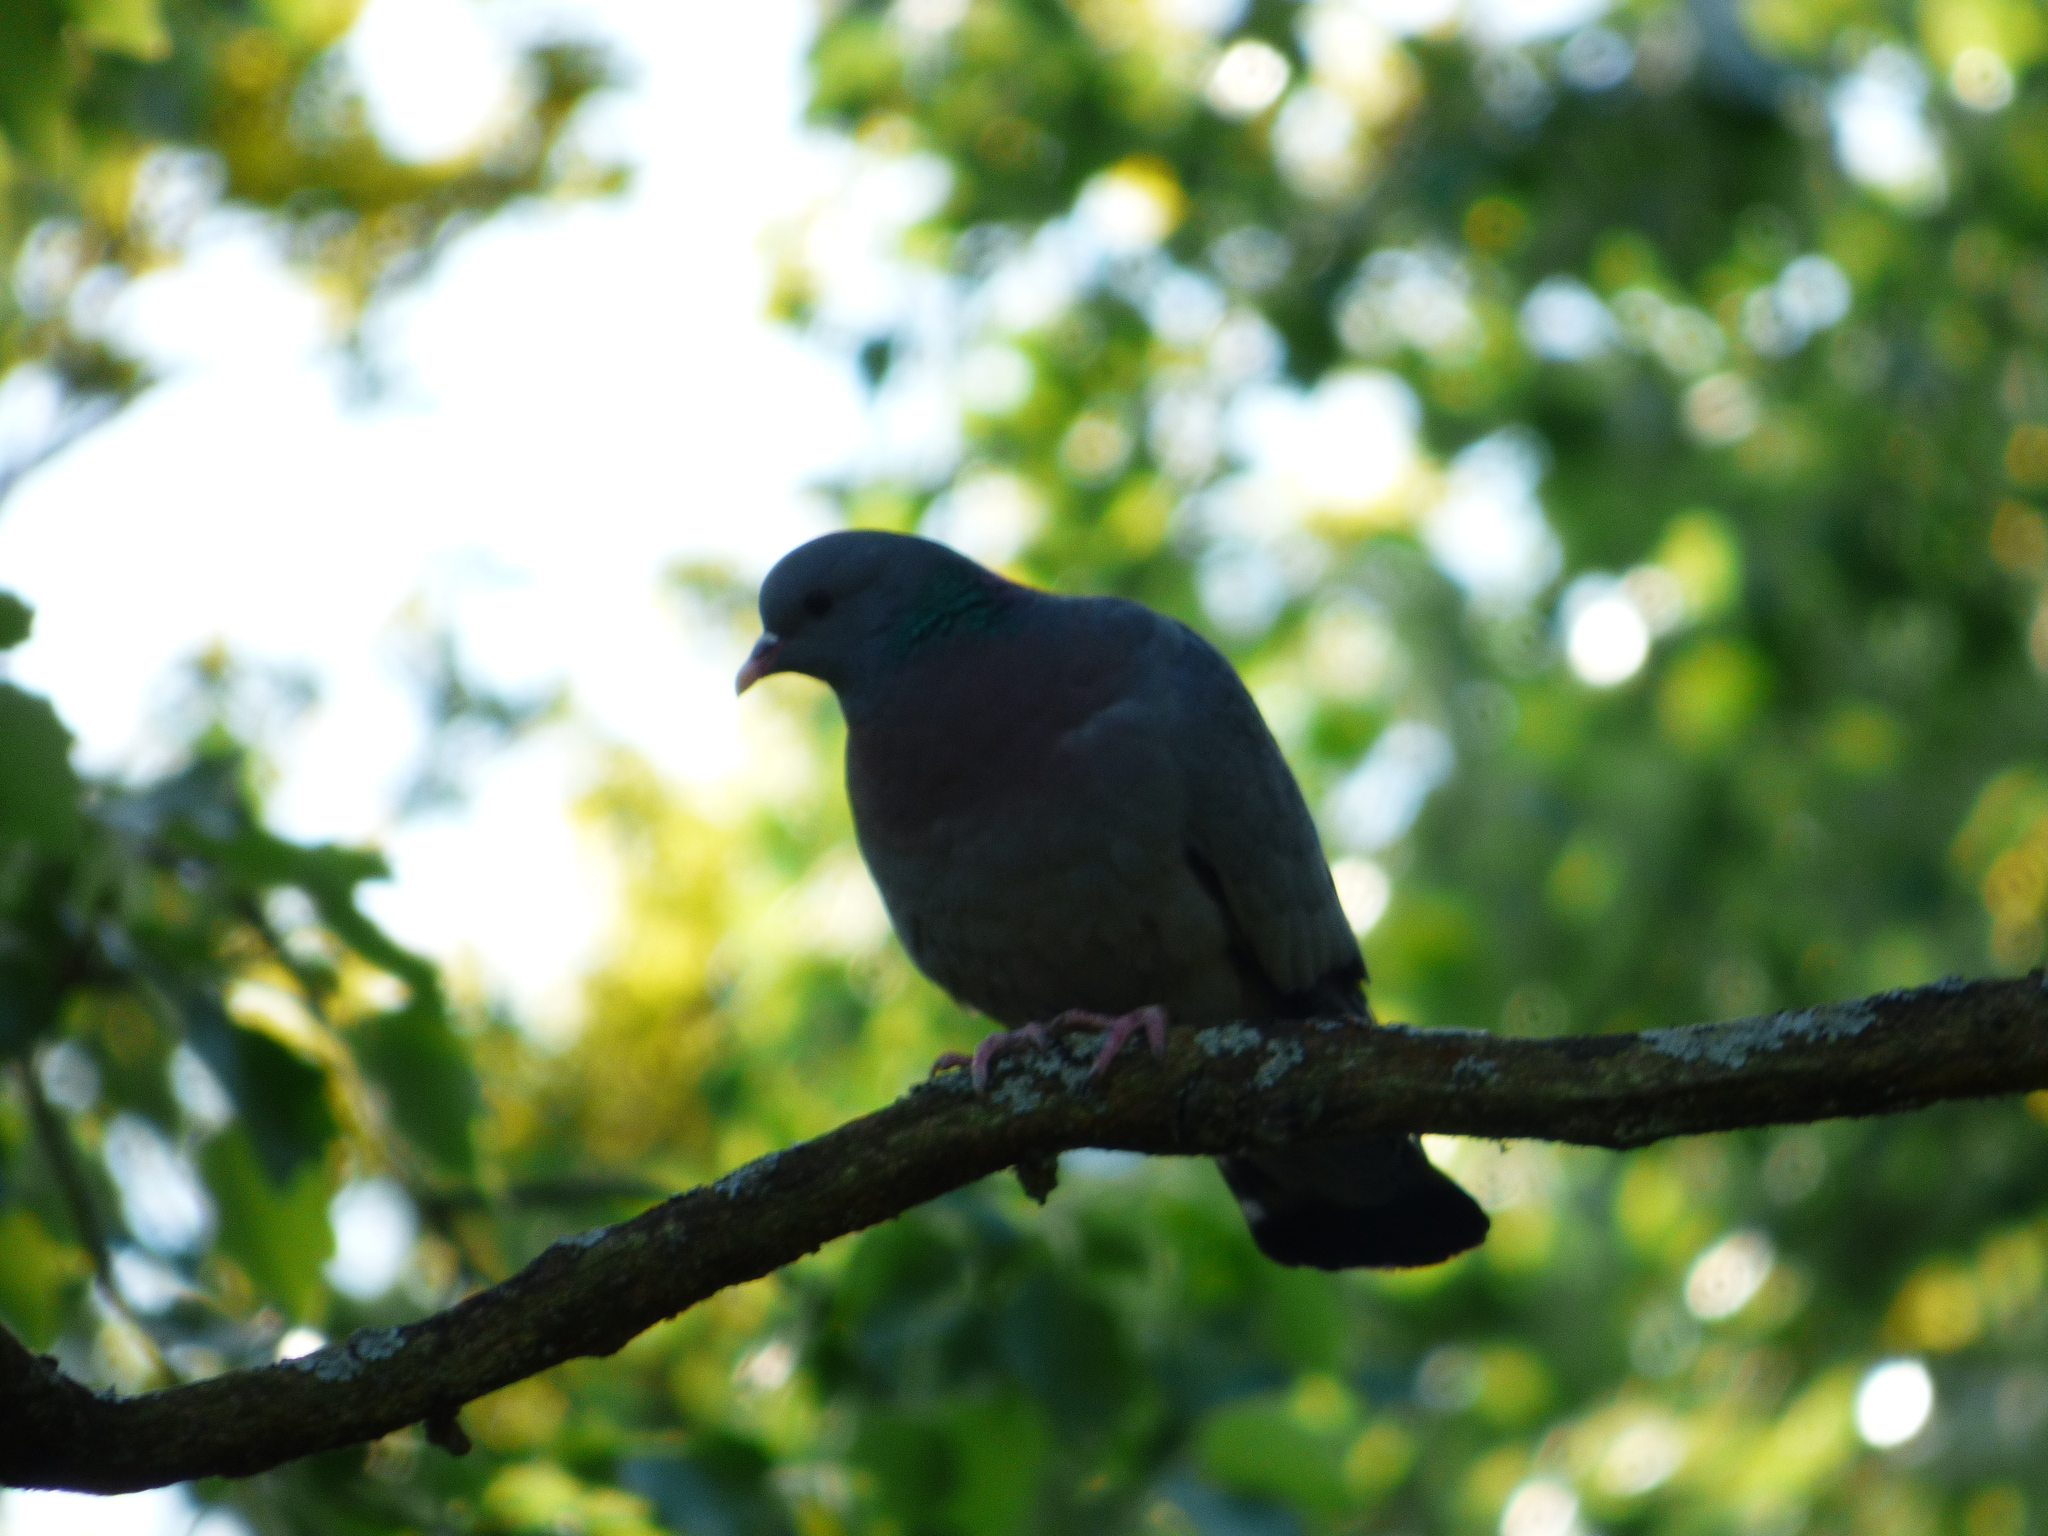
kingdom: Animalia
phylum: Chordata
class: Aves
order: Columbiformes
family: Columbidae
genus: Columba
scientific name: Columba oenas
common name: Stock dove
